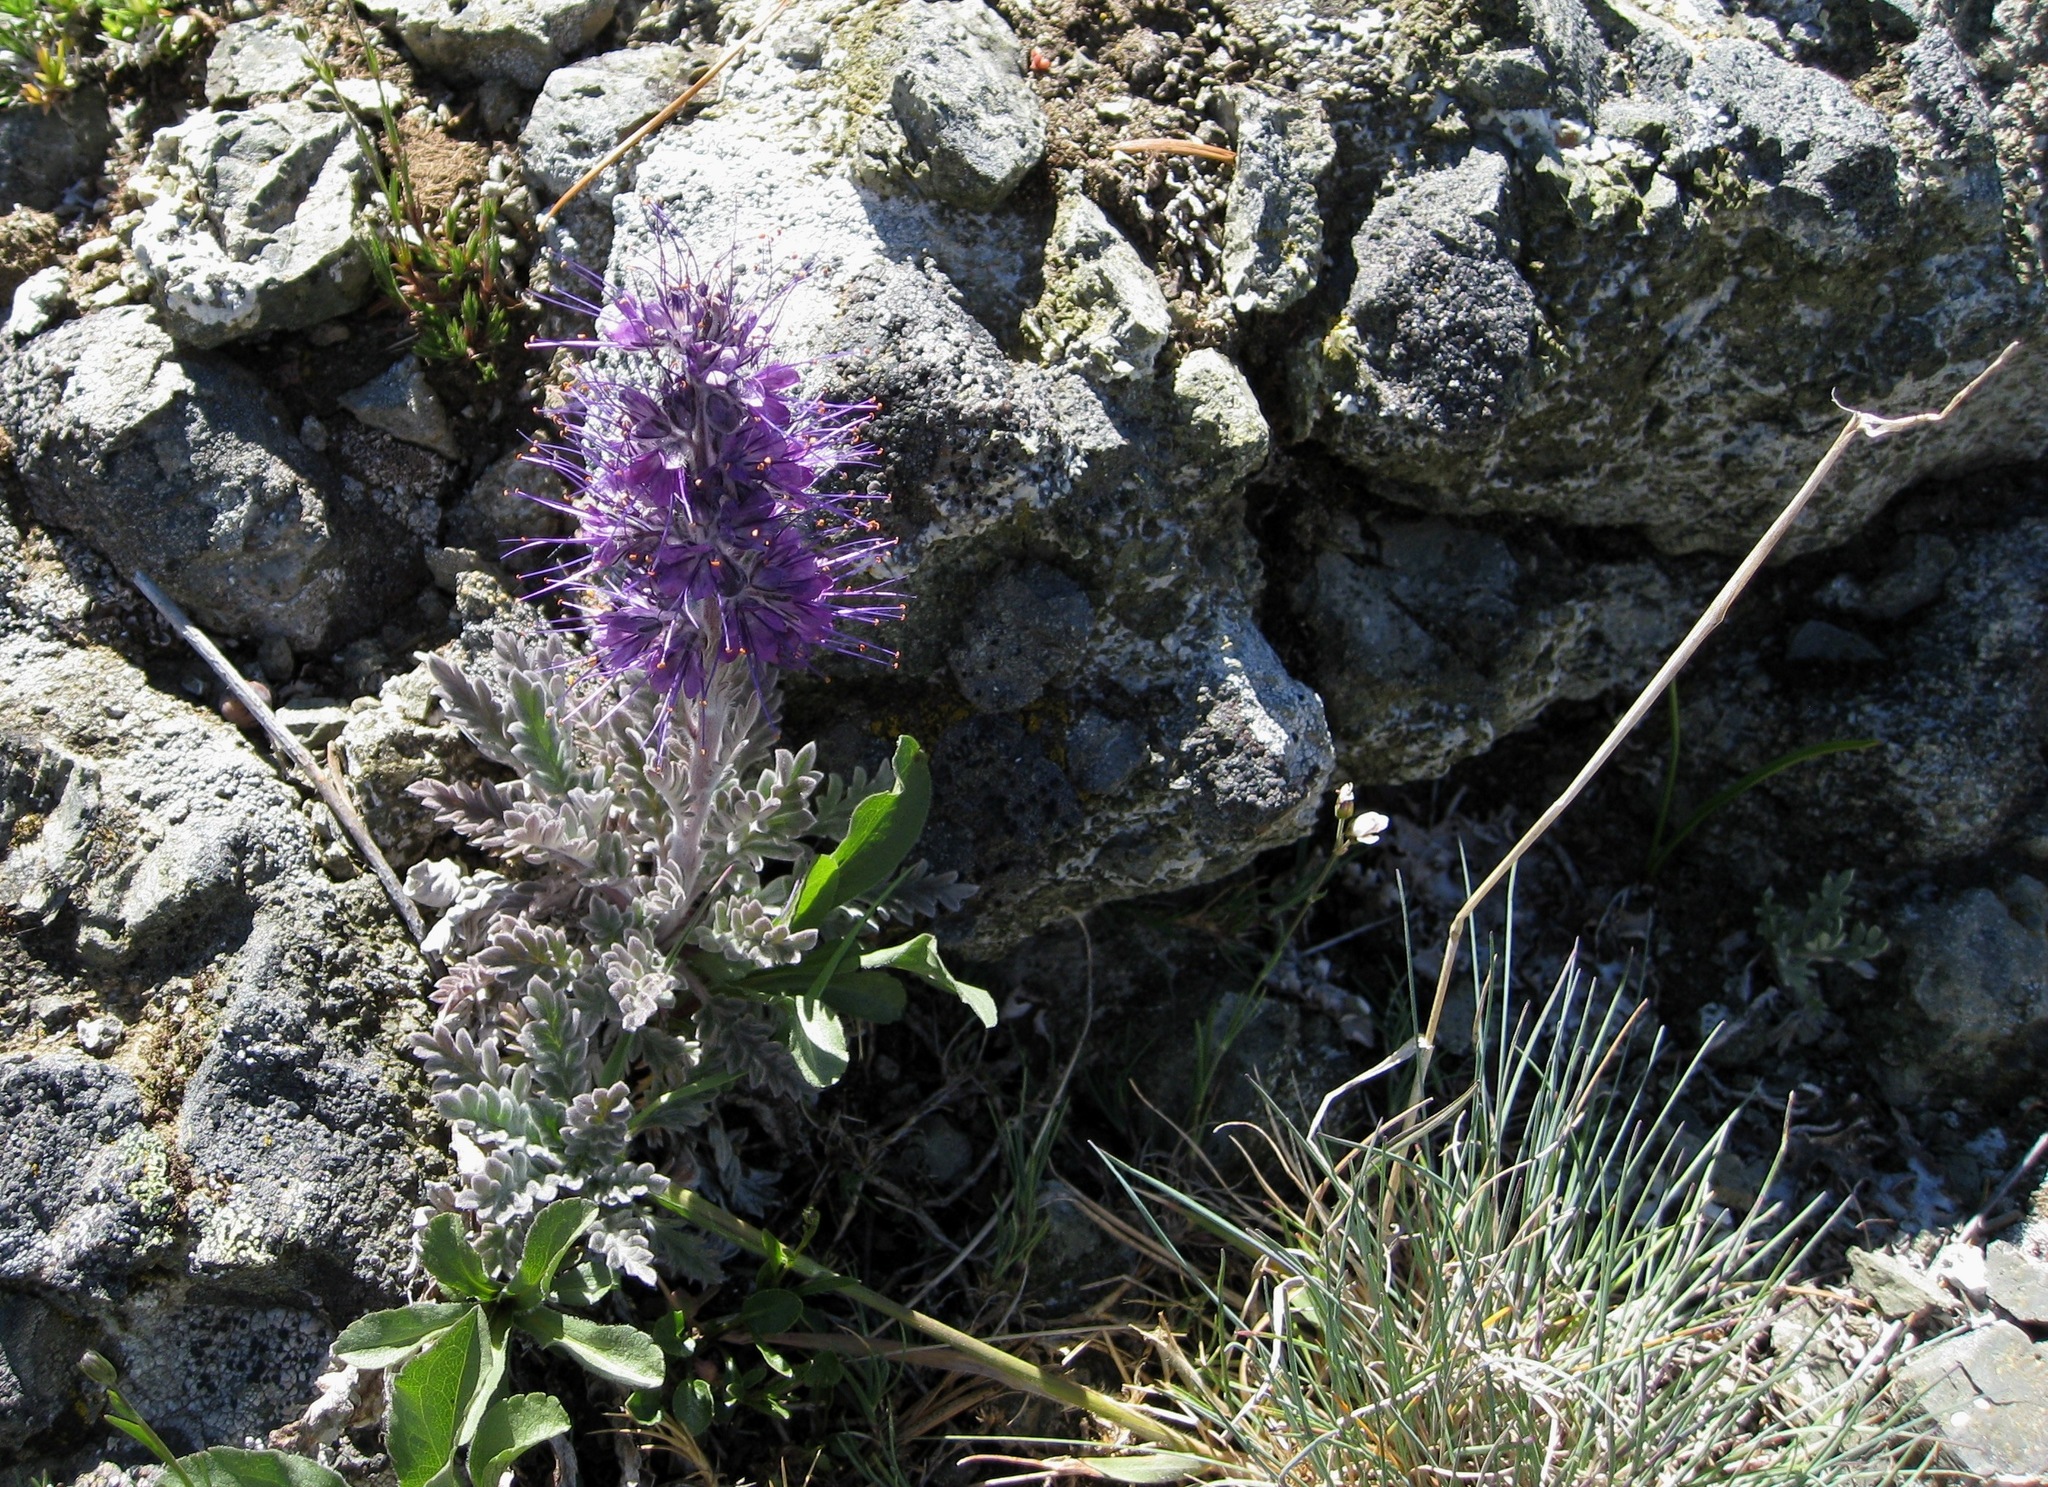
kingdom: Plantae
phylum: Tracheophyta
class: Magnoliopsida
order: Boraginales
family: Hydrophyllaceae
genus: Phacelia
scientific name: Phacelia sericea
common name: Silky phacelia
